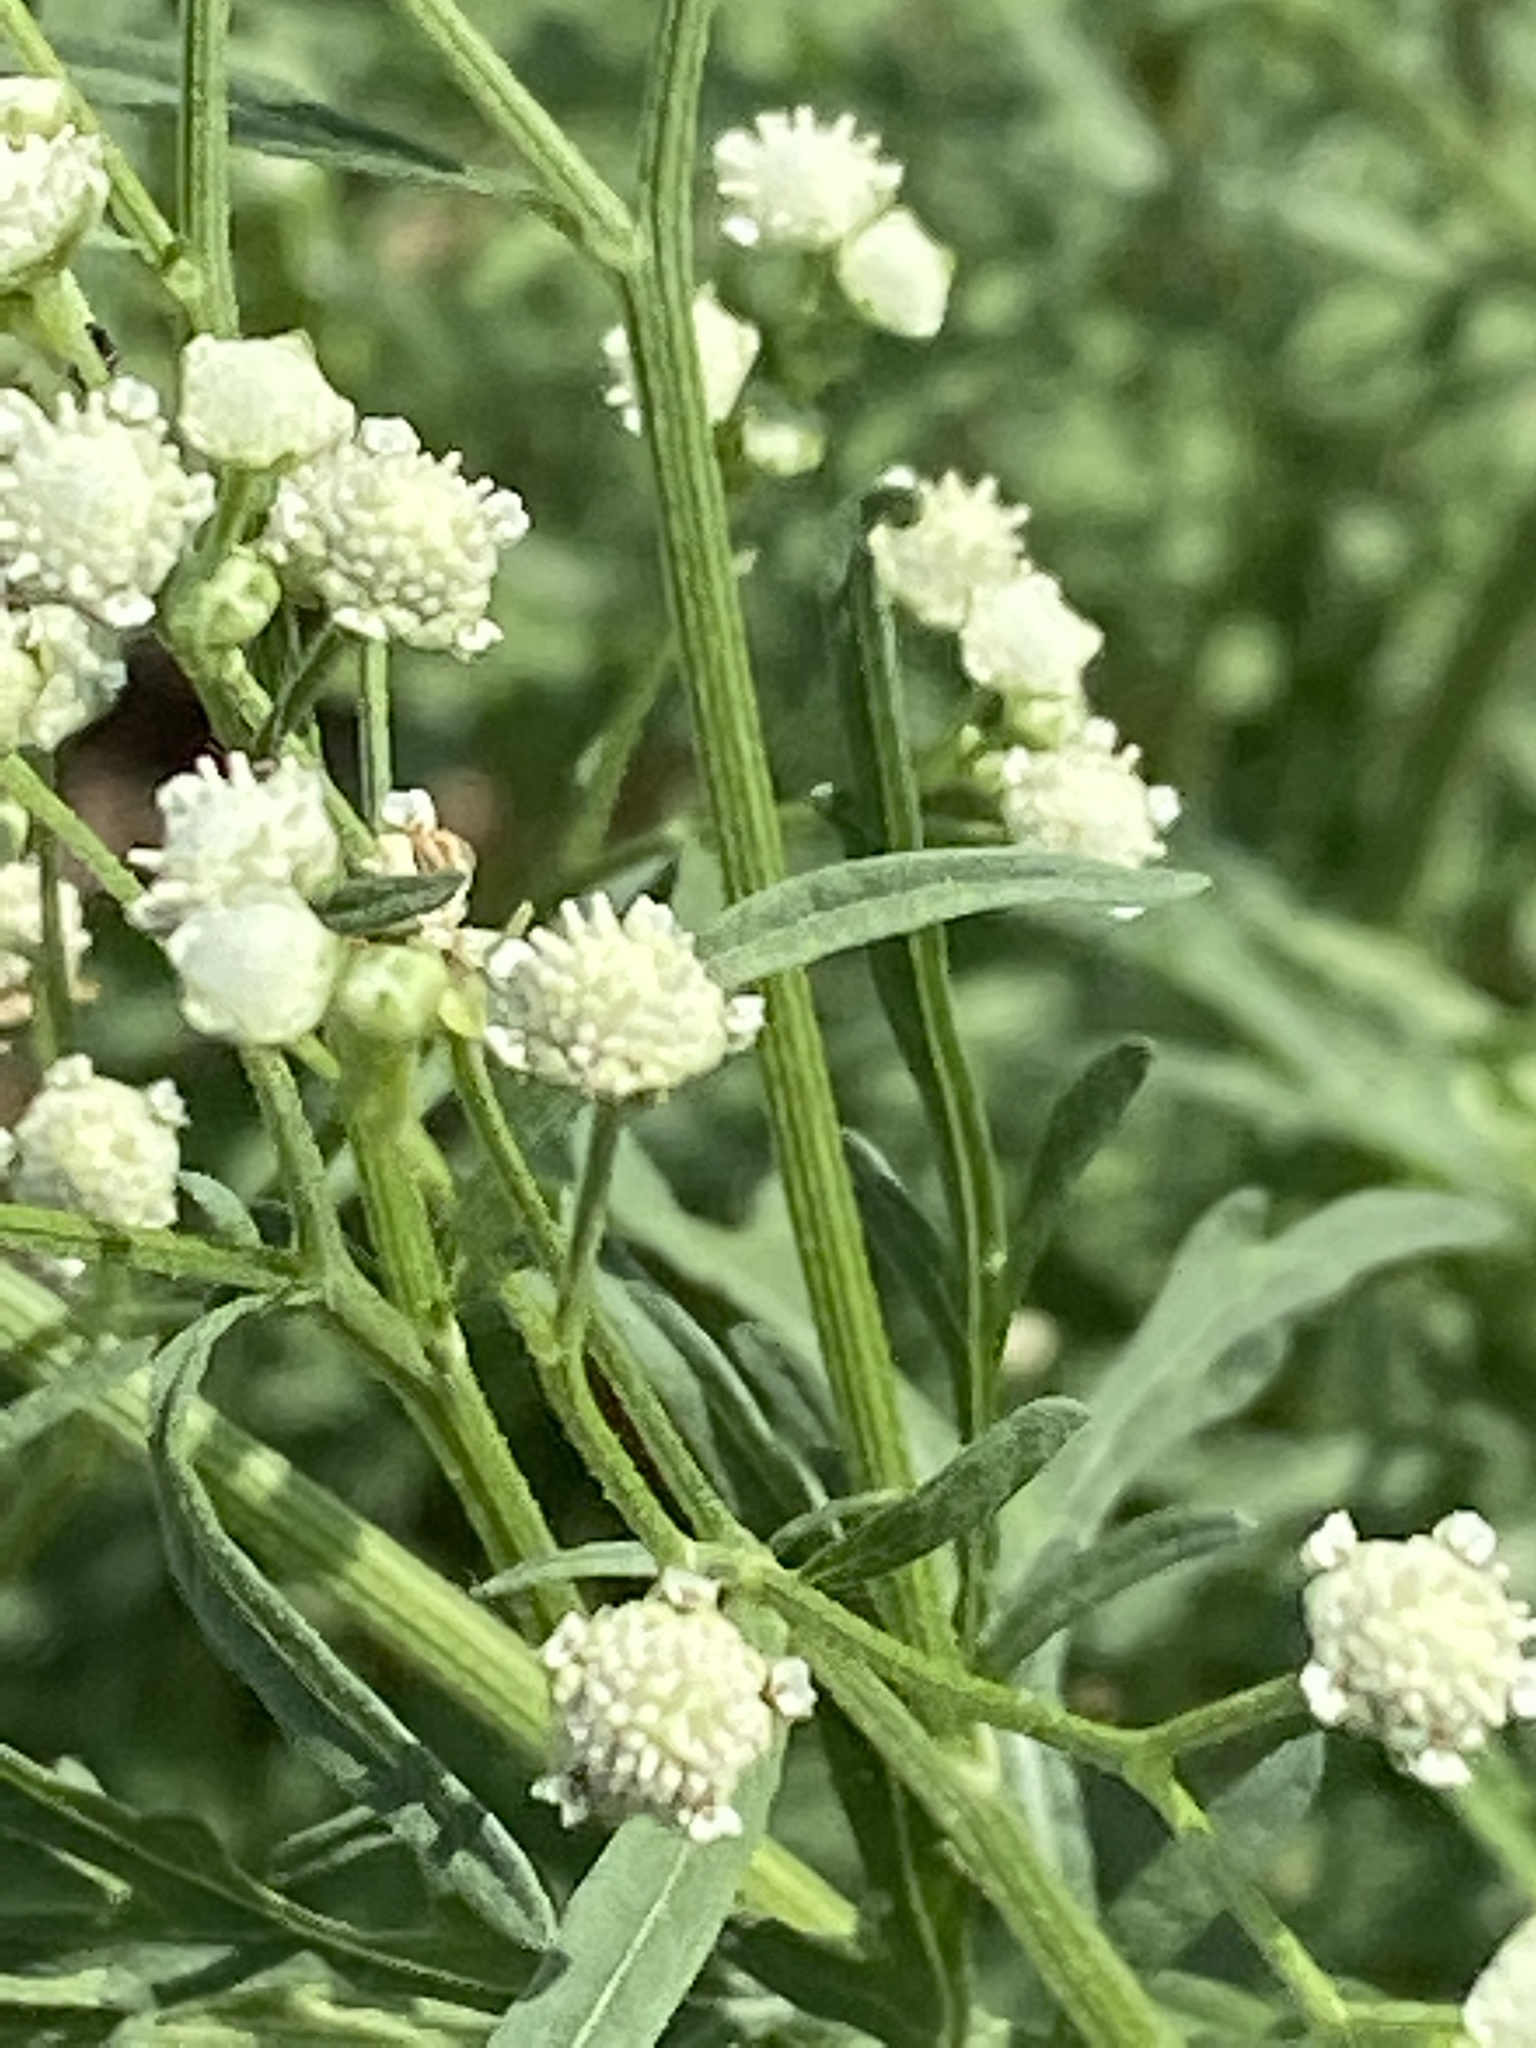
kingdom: Plantae
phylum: Tracheophyta
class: Magnoliopsida
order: Asterales
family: Asteraceae
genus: Parthenium
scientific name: Parthenium hysterophorus
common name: Santa maria feverfew
